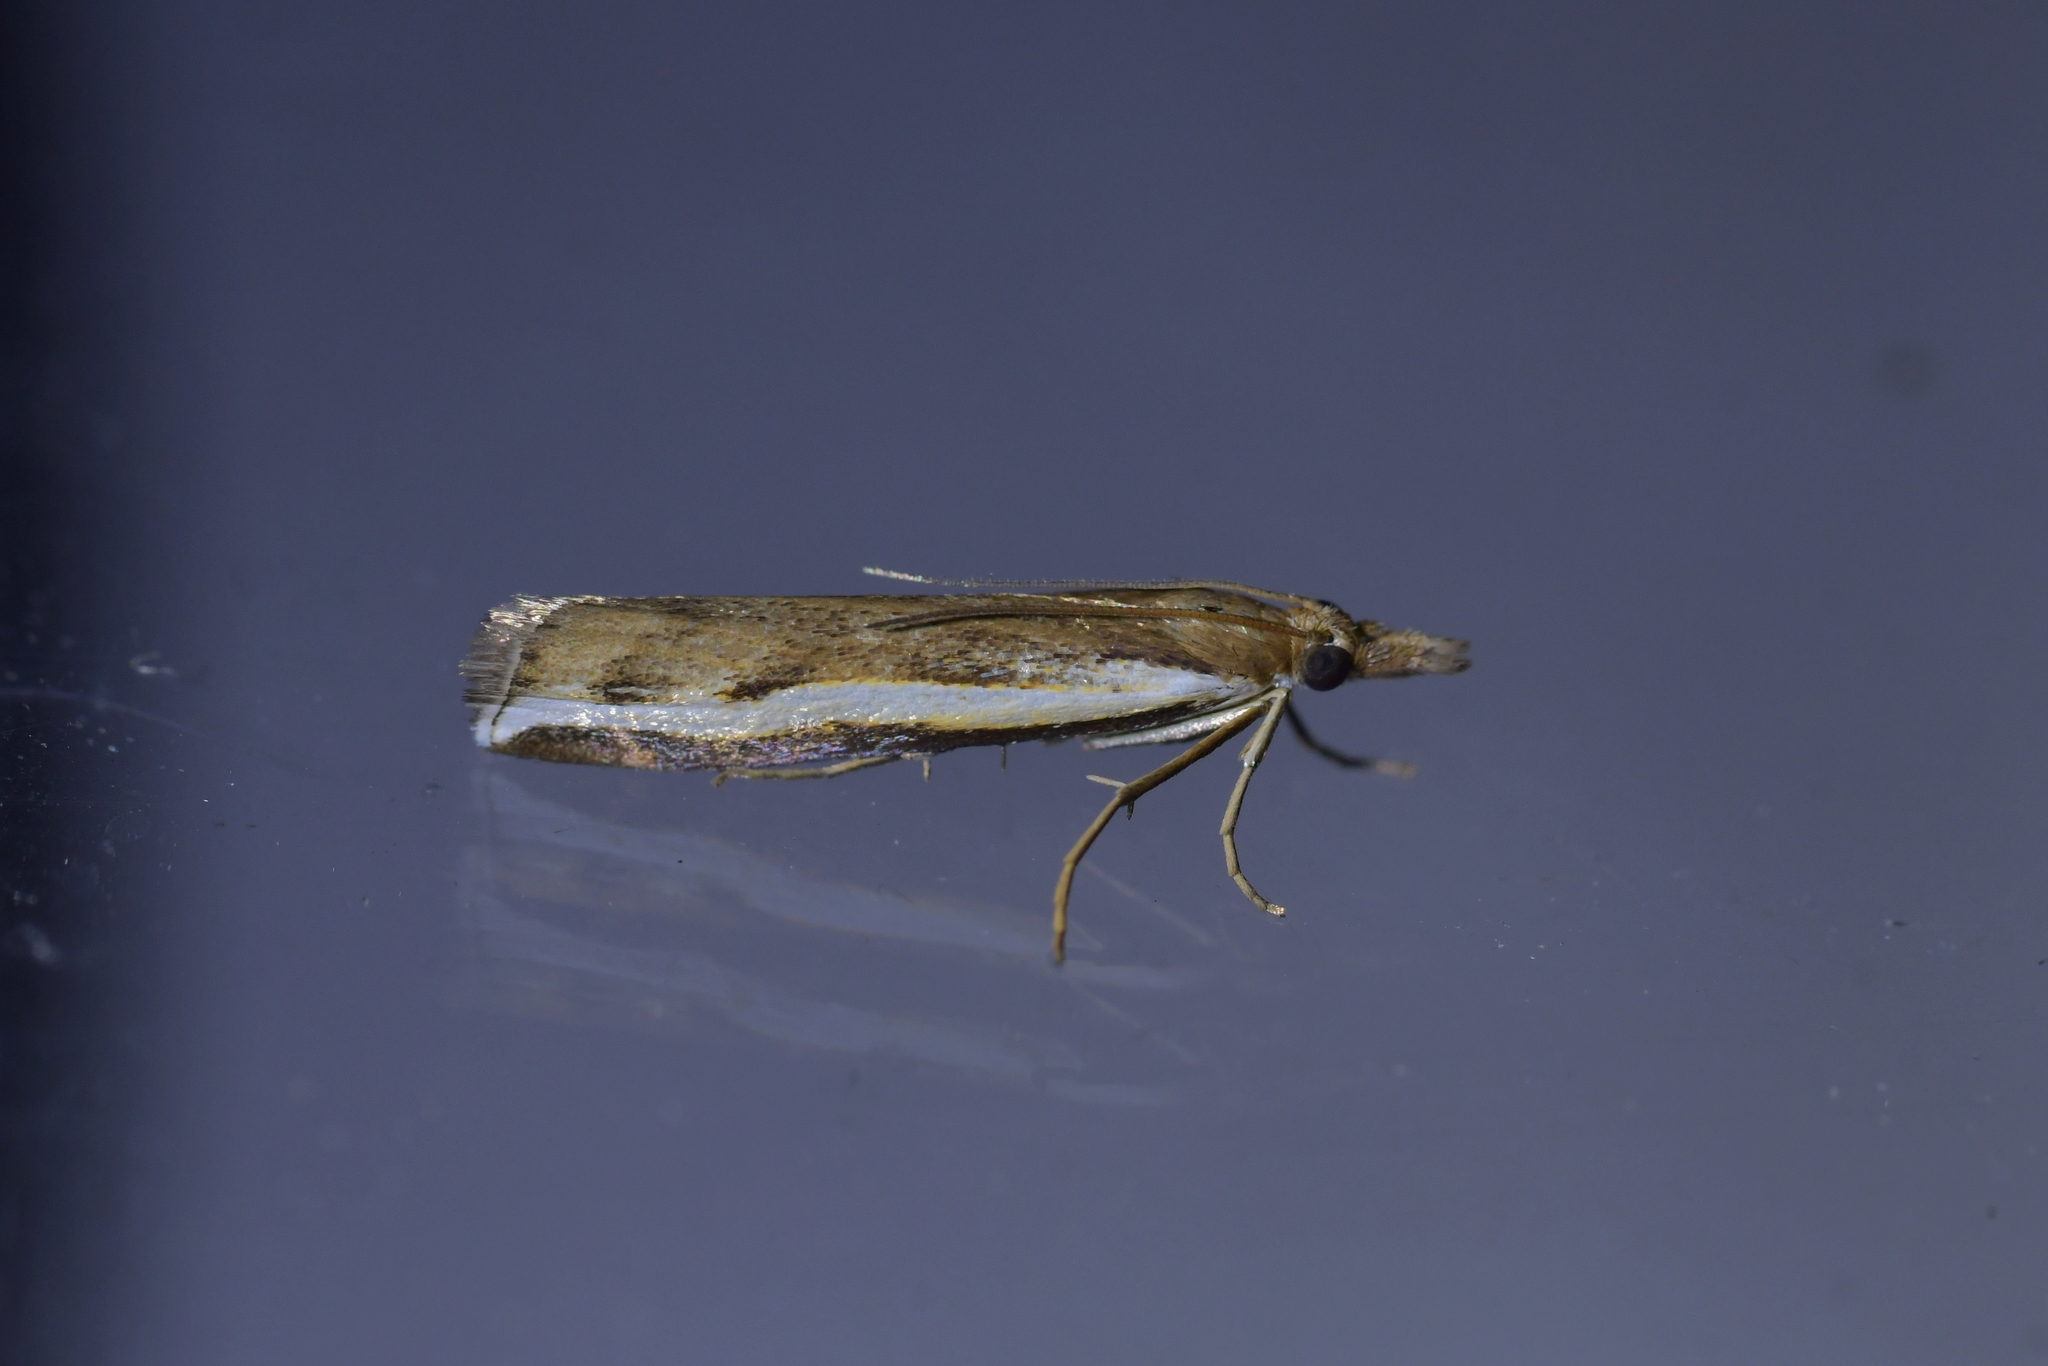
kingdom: Animalia
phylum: Arthropoda
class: Insecta
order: Lepidoptera
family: Crambidae
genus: Orocrambus
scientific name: Orocrambus flexuosellus
